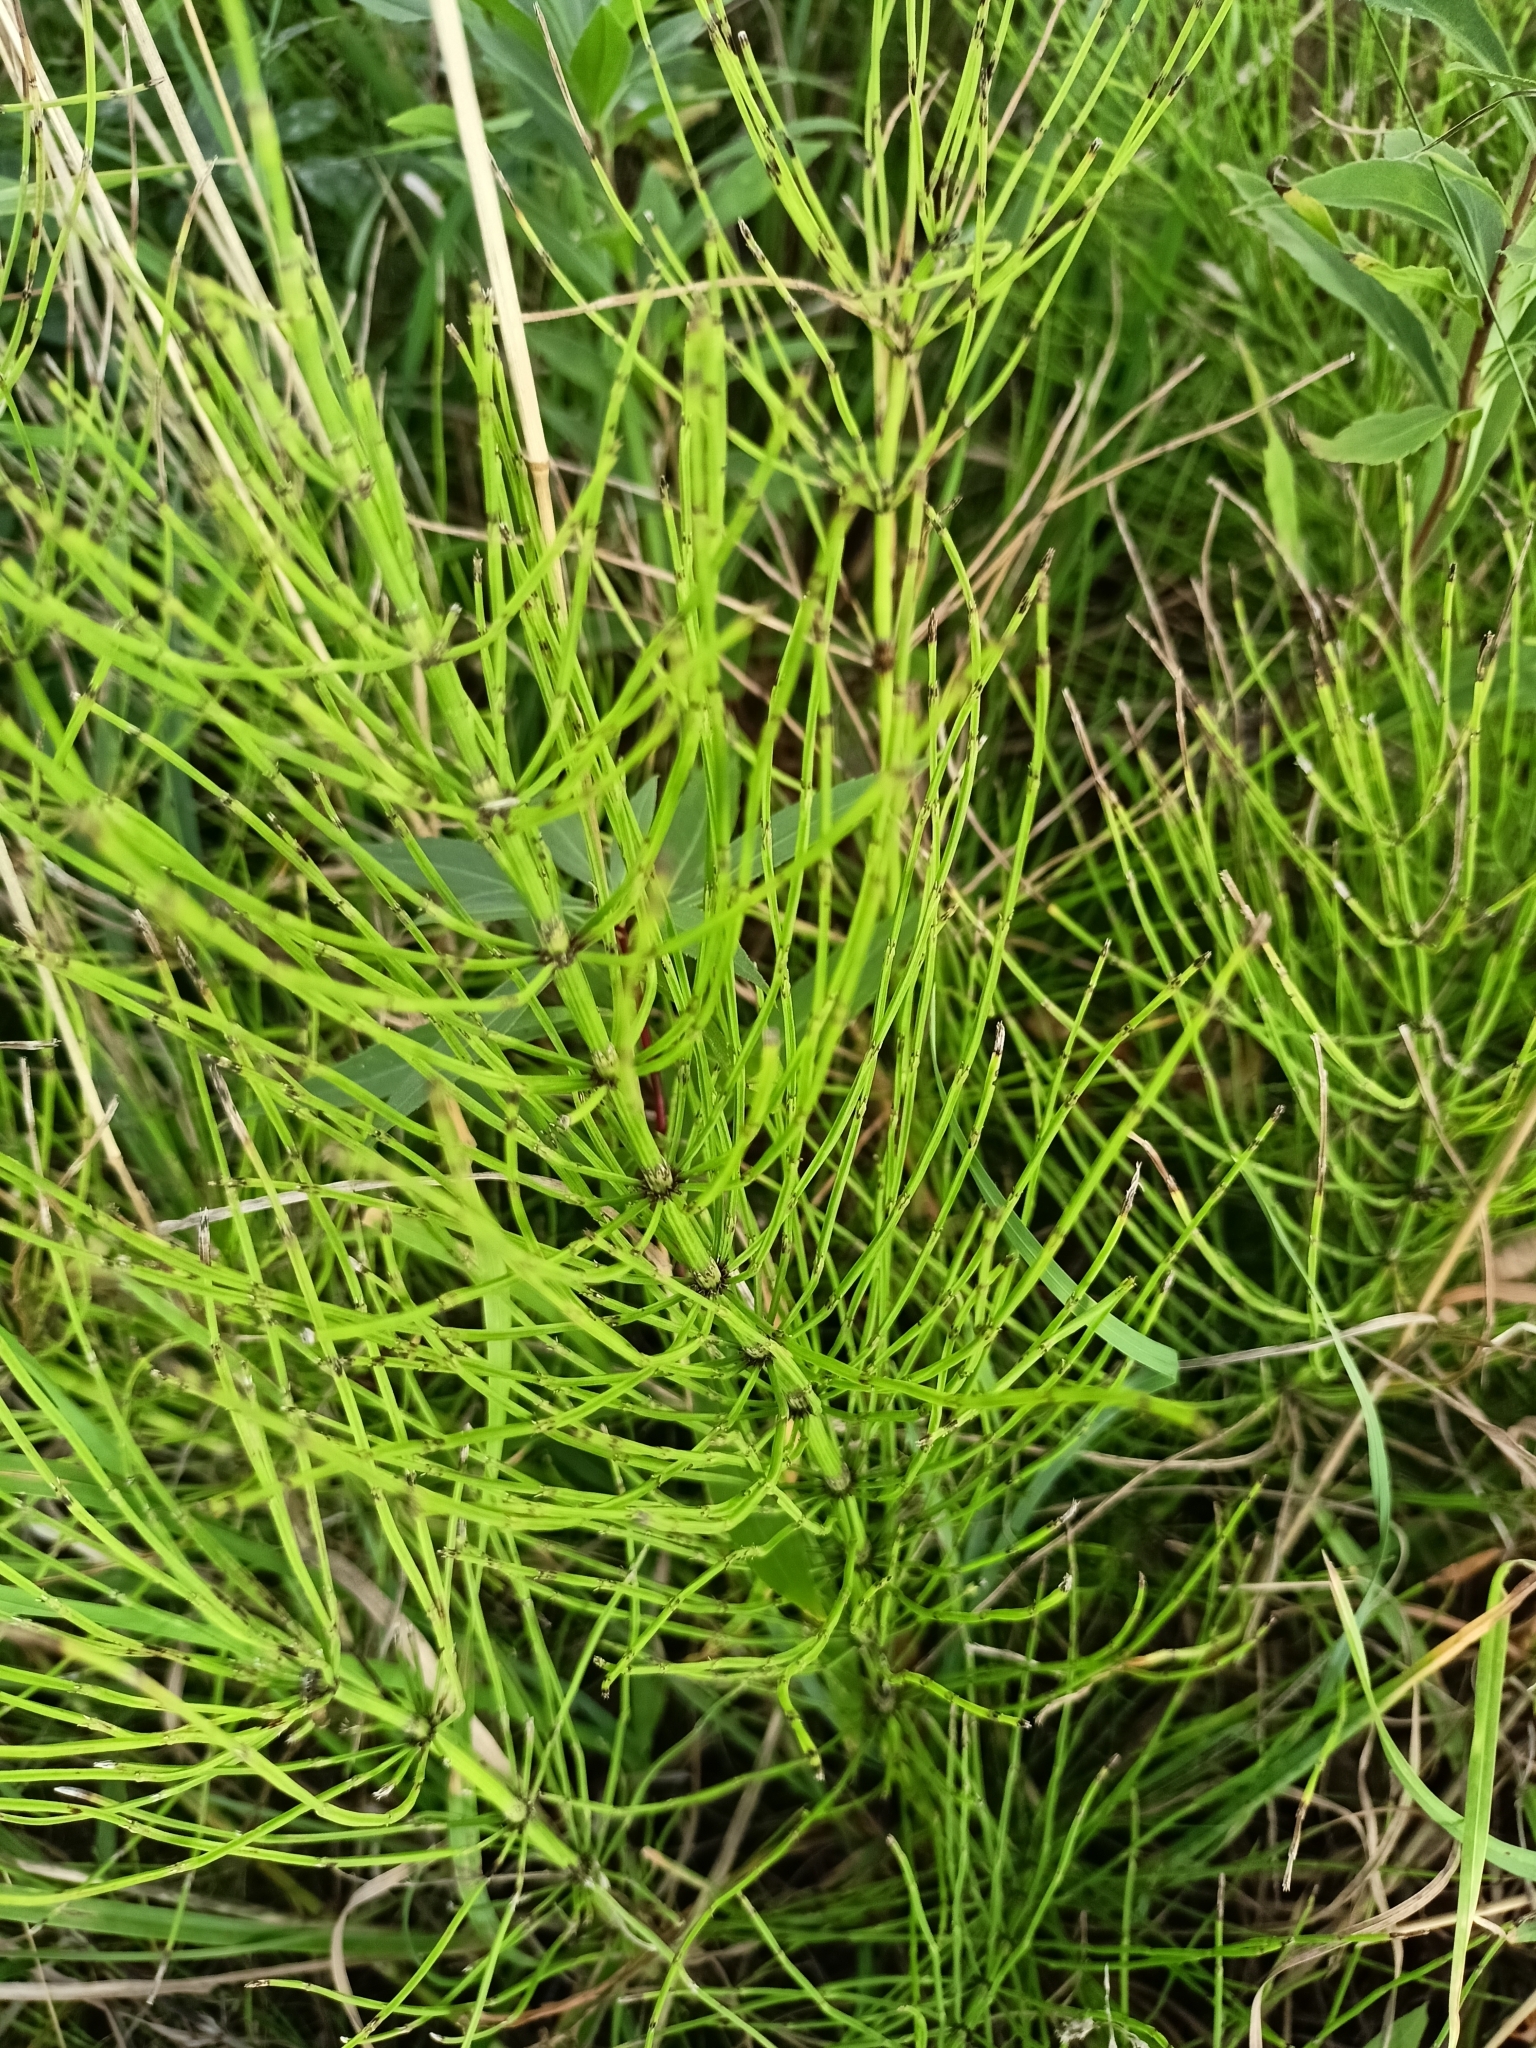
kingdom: Plantae
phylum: Tracheophyta
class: Polypodiopsida
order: Equisetales
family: Equisetaceae
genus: Equisetum
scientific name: Equisetum arvense
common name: Field horsetail
